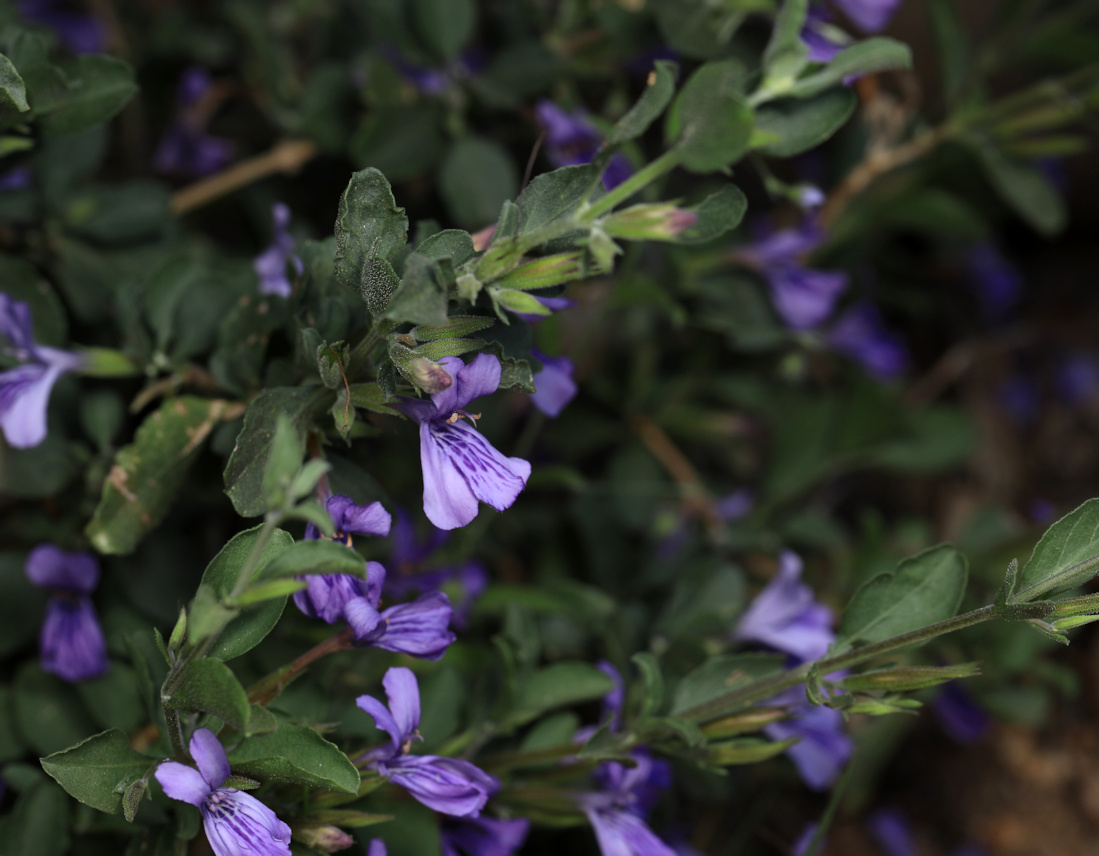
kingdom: Plantae
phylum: Tracheophyta
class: Magnoliopsida
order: Lamiales
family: Acanthaceae
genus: Dyschoriste
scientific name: Dyschoriste hildebrandtii
